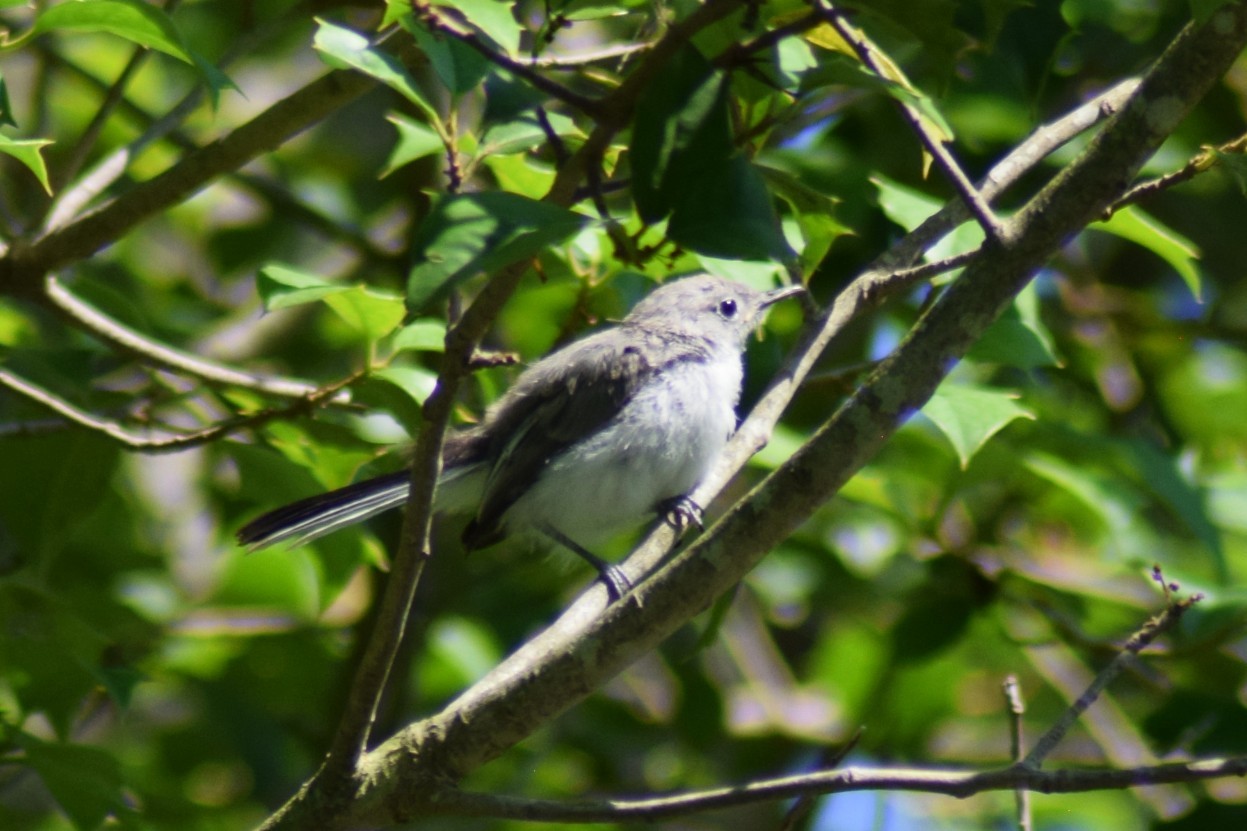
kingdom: Animalia
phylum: Chordata
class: Aves
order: Passeriformes
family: Polioptilidae
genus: Polioptila
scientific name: Polioptila caerulea
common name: Blue-gray gnatcatcher
